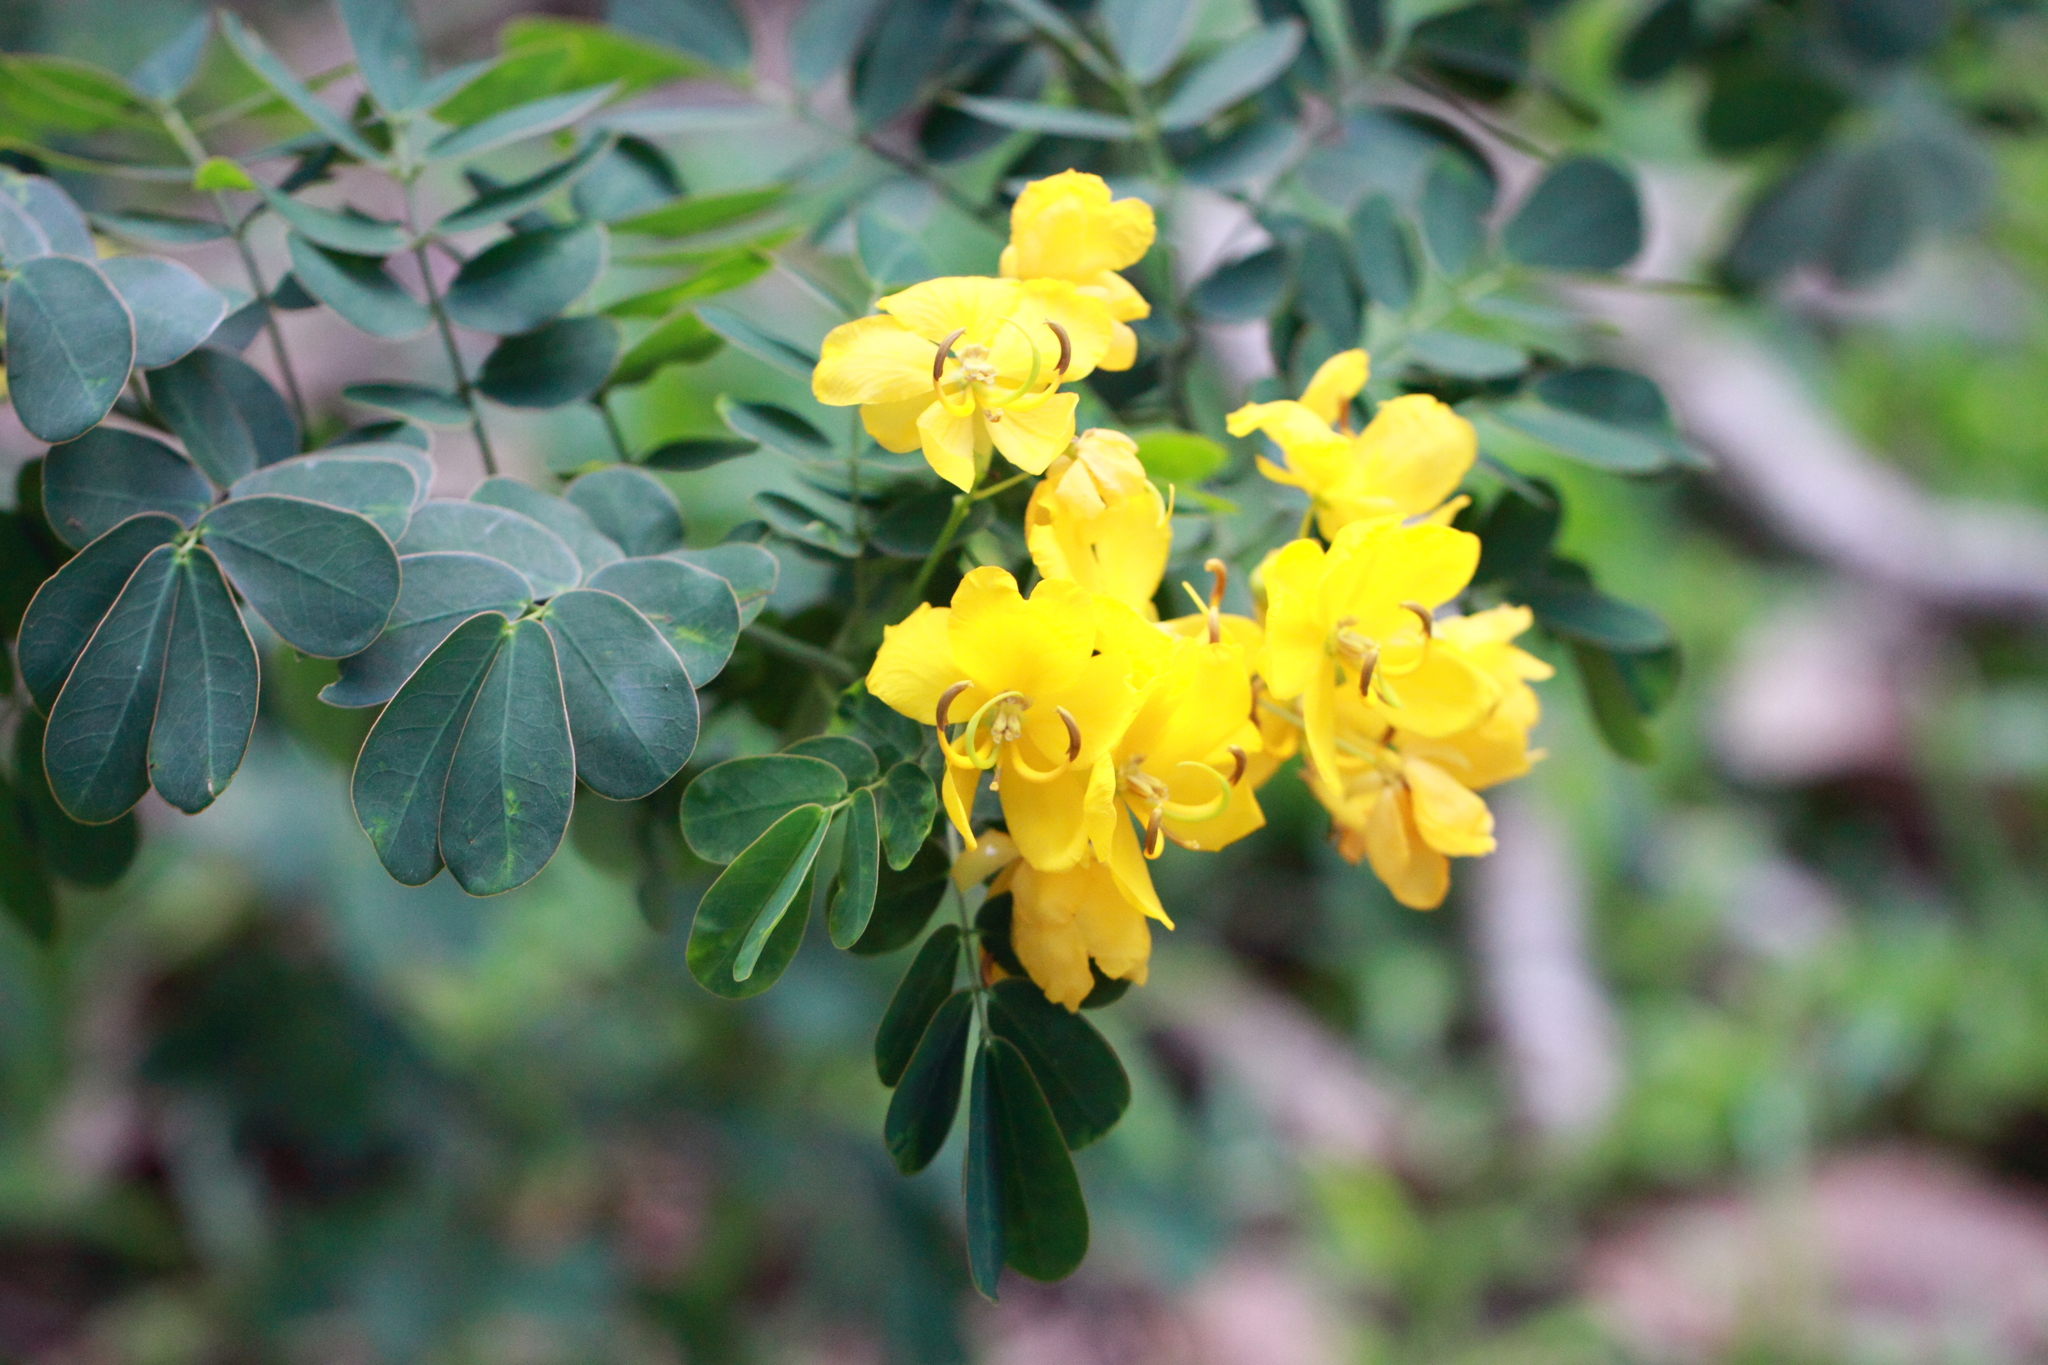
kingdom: Plantae
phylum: Tracheophyta
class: Magnoliopsida
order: Fabales
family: Fabaceae
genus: Senna
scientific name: Senna pendula
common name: Easter cassia
